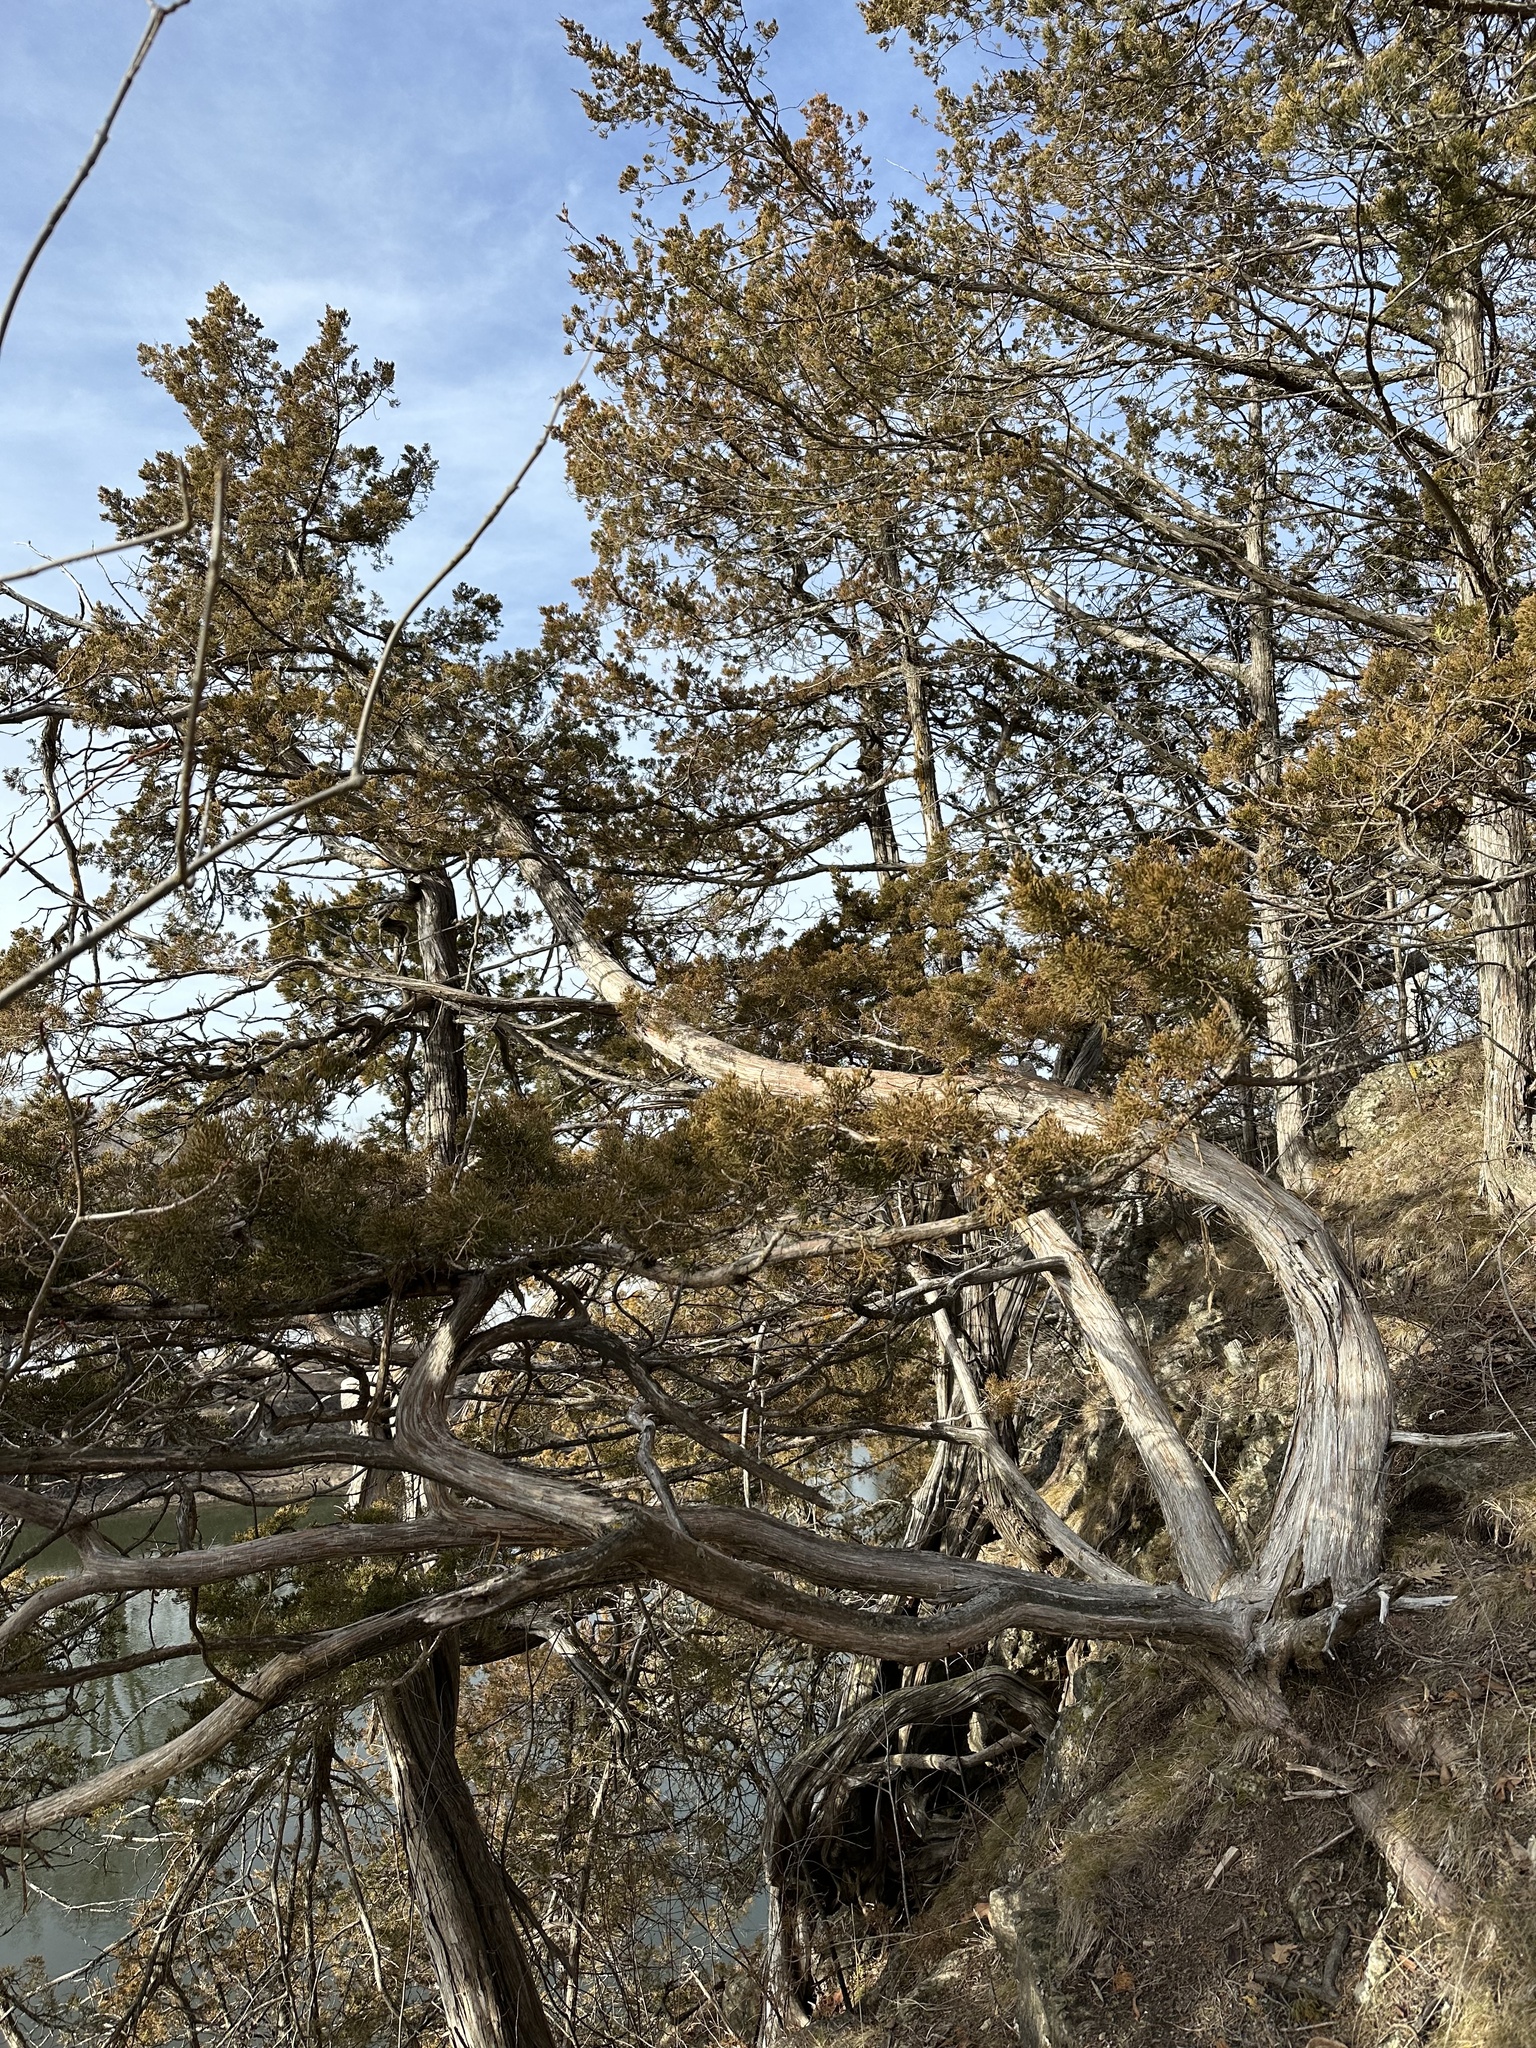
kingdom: Plantae
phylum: Tracheophyta
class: Pinopsida
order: Pinales
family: Cupressaceae
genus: Juniperus
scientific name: Juniperus virginiana
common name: Red juniper
